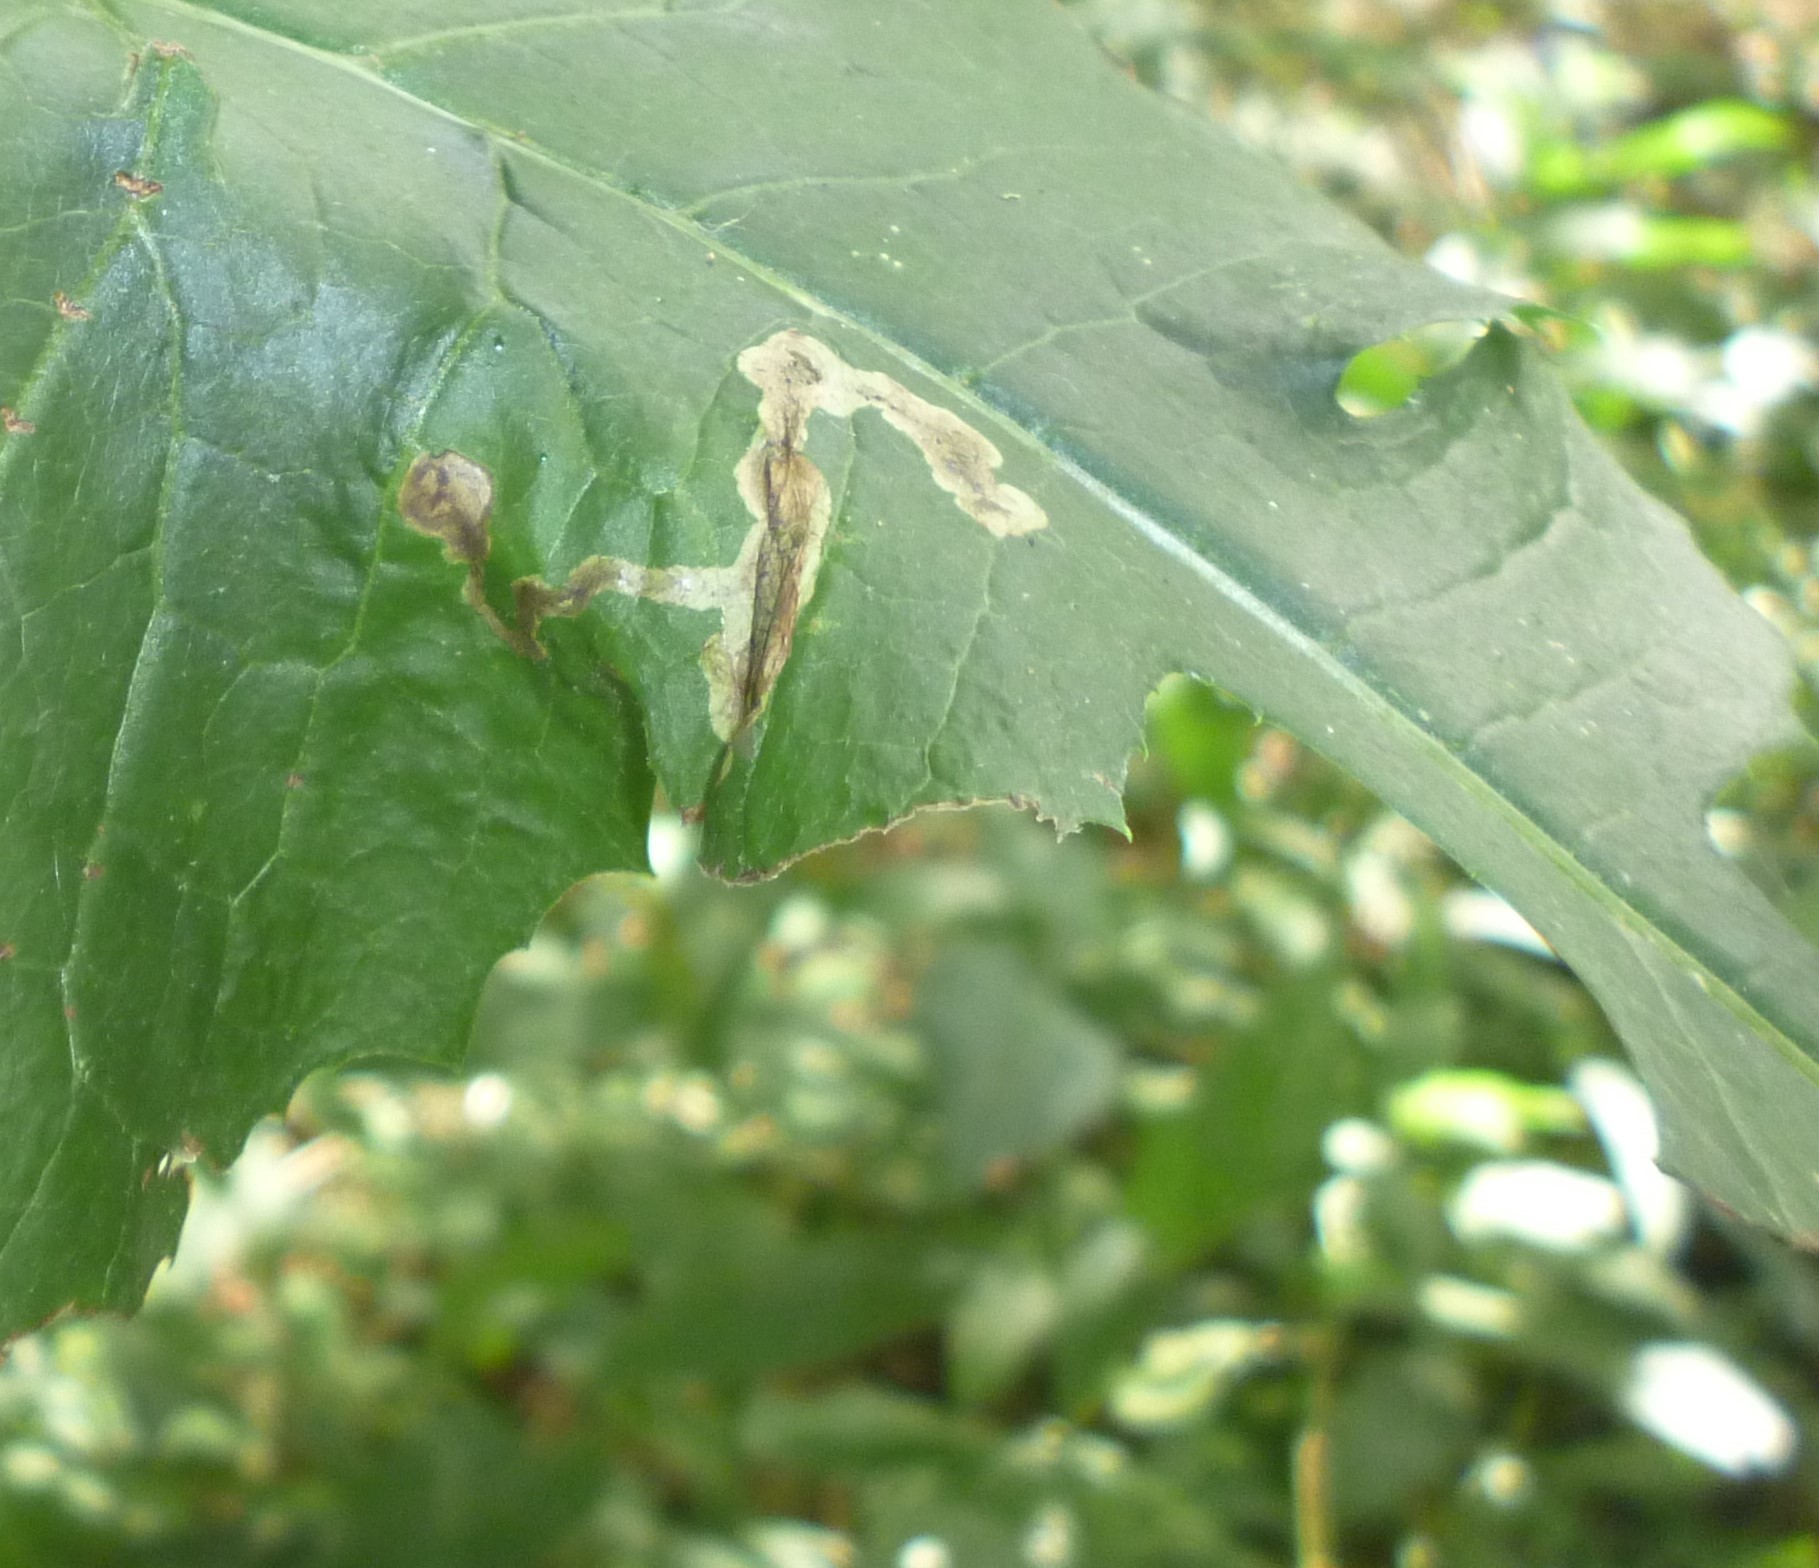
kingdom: Animalia
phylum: Arthropoda
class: Insecta
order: Diptera
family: Agromyzidae
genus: Liriomyza
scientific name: Liriomyza taraxaci
